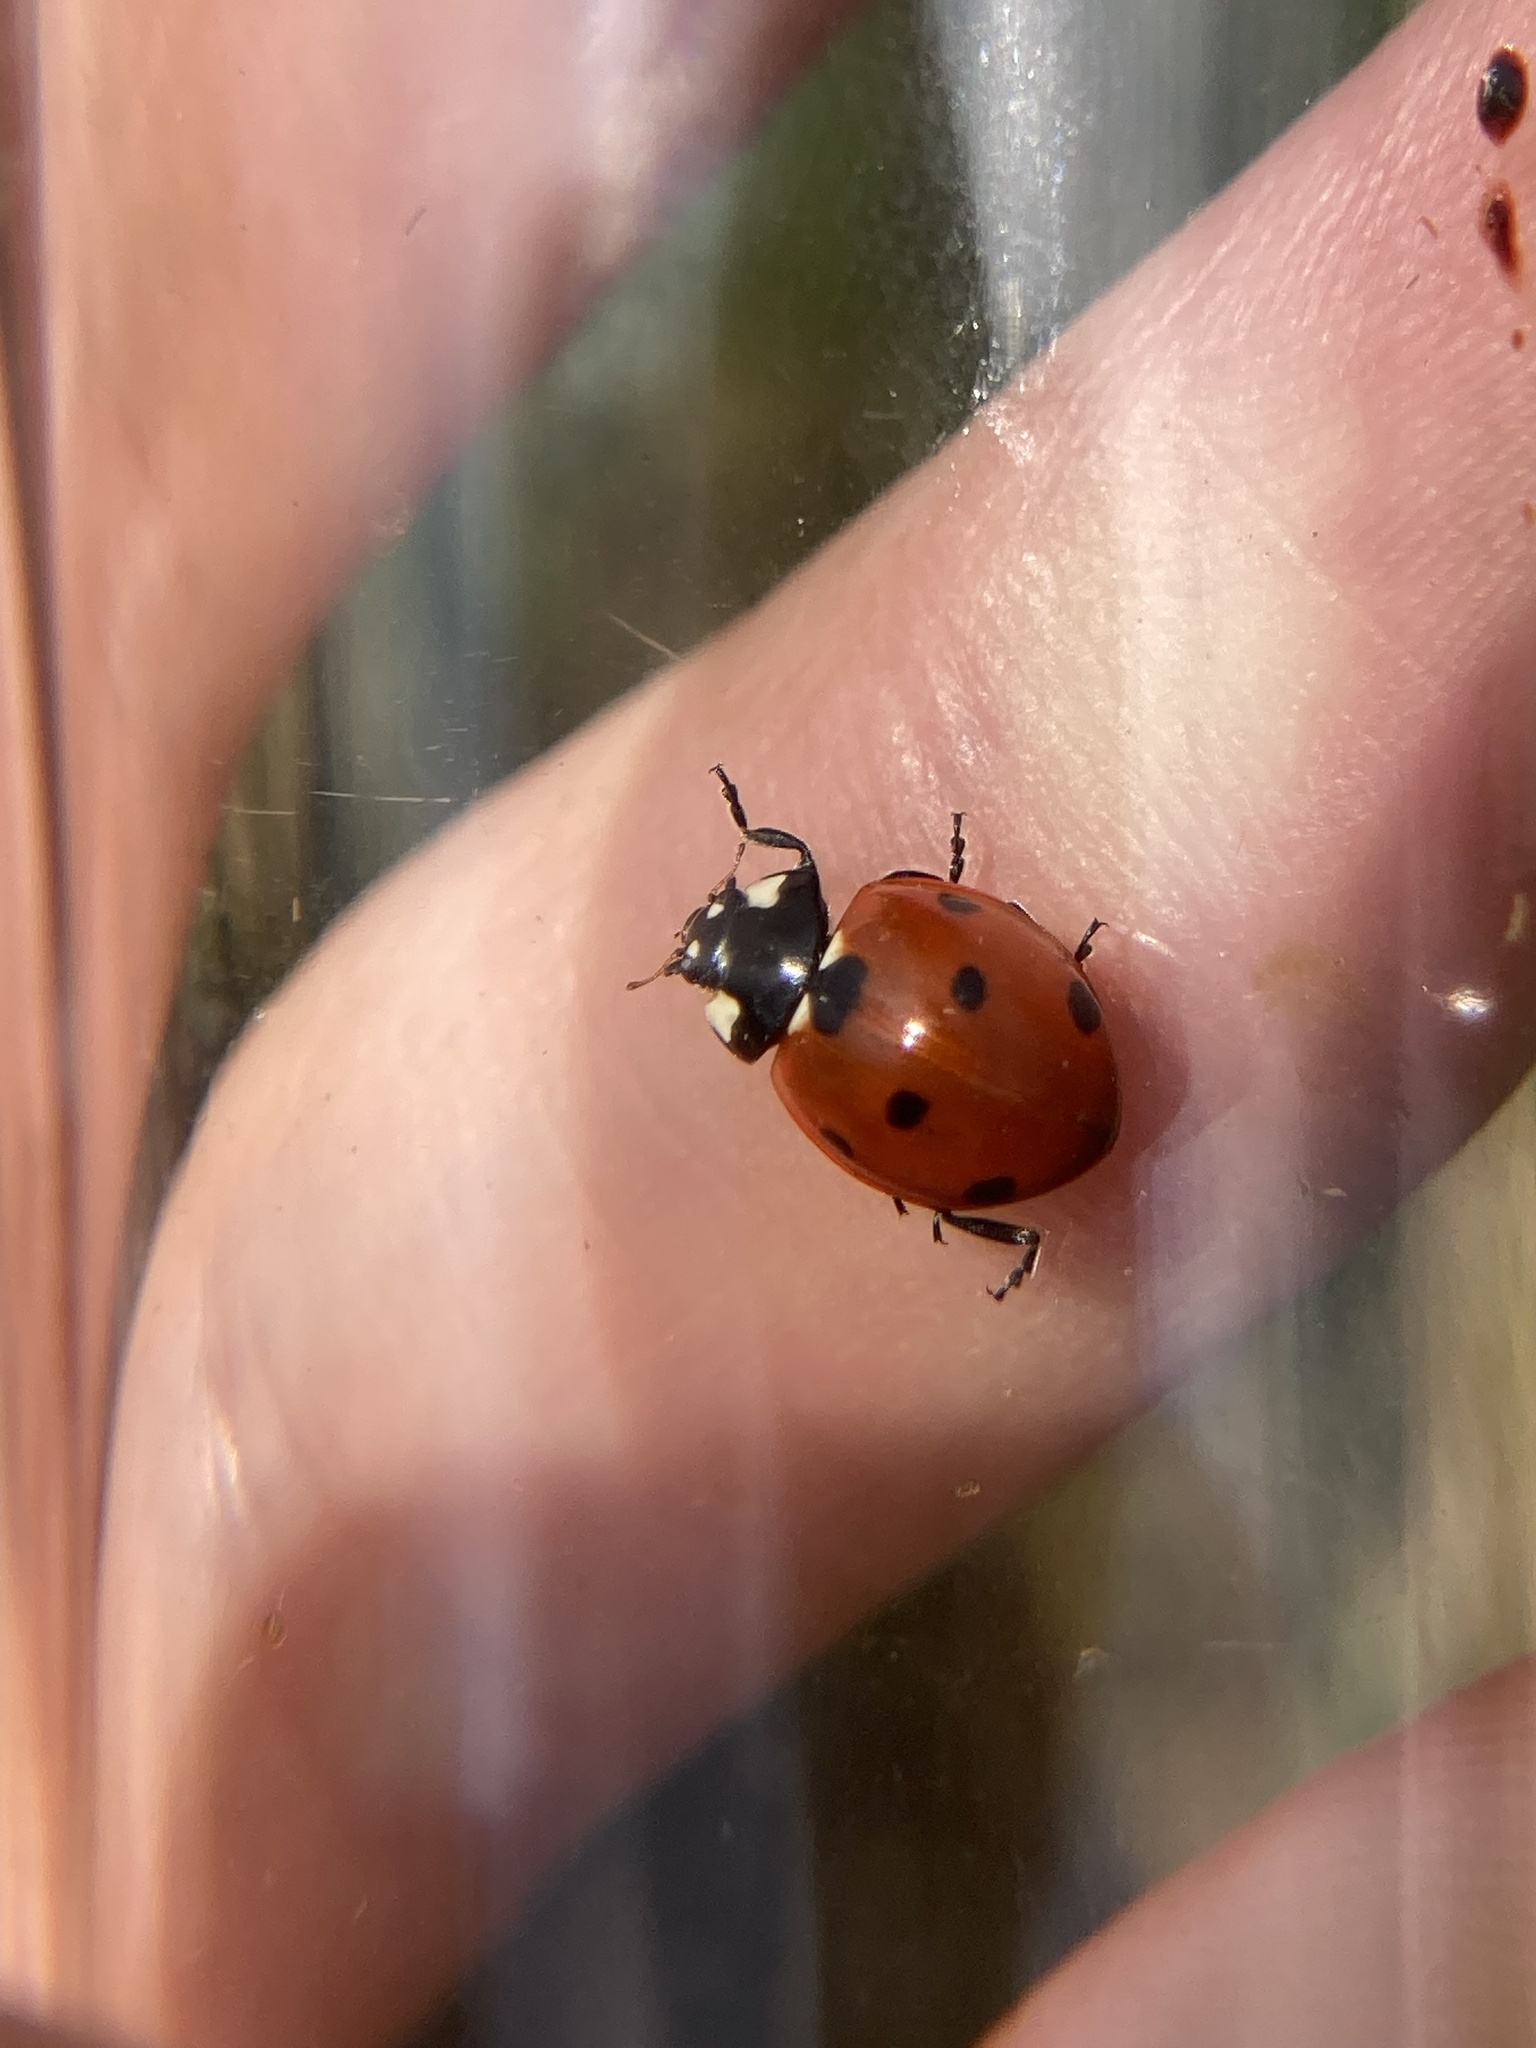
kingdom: Animalia
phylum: Arthropoda
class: Insecta
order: Coleoptera
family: Coccinellidae
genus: Coccinella
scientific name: Coccinella septempunctata
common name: Sevenspotted lady beetle
